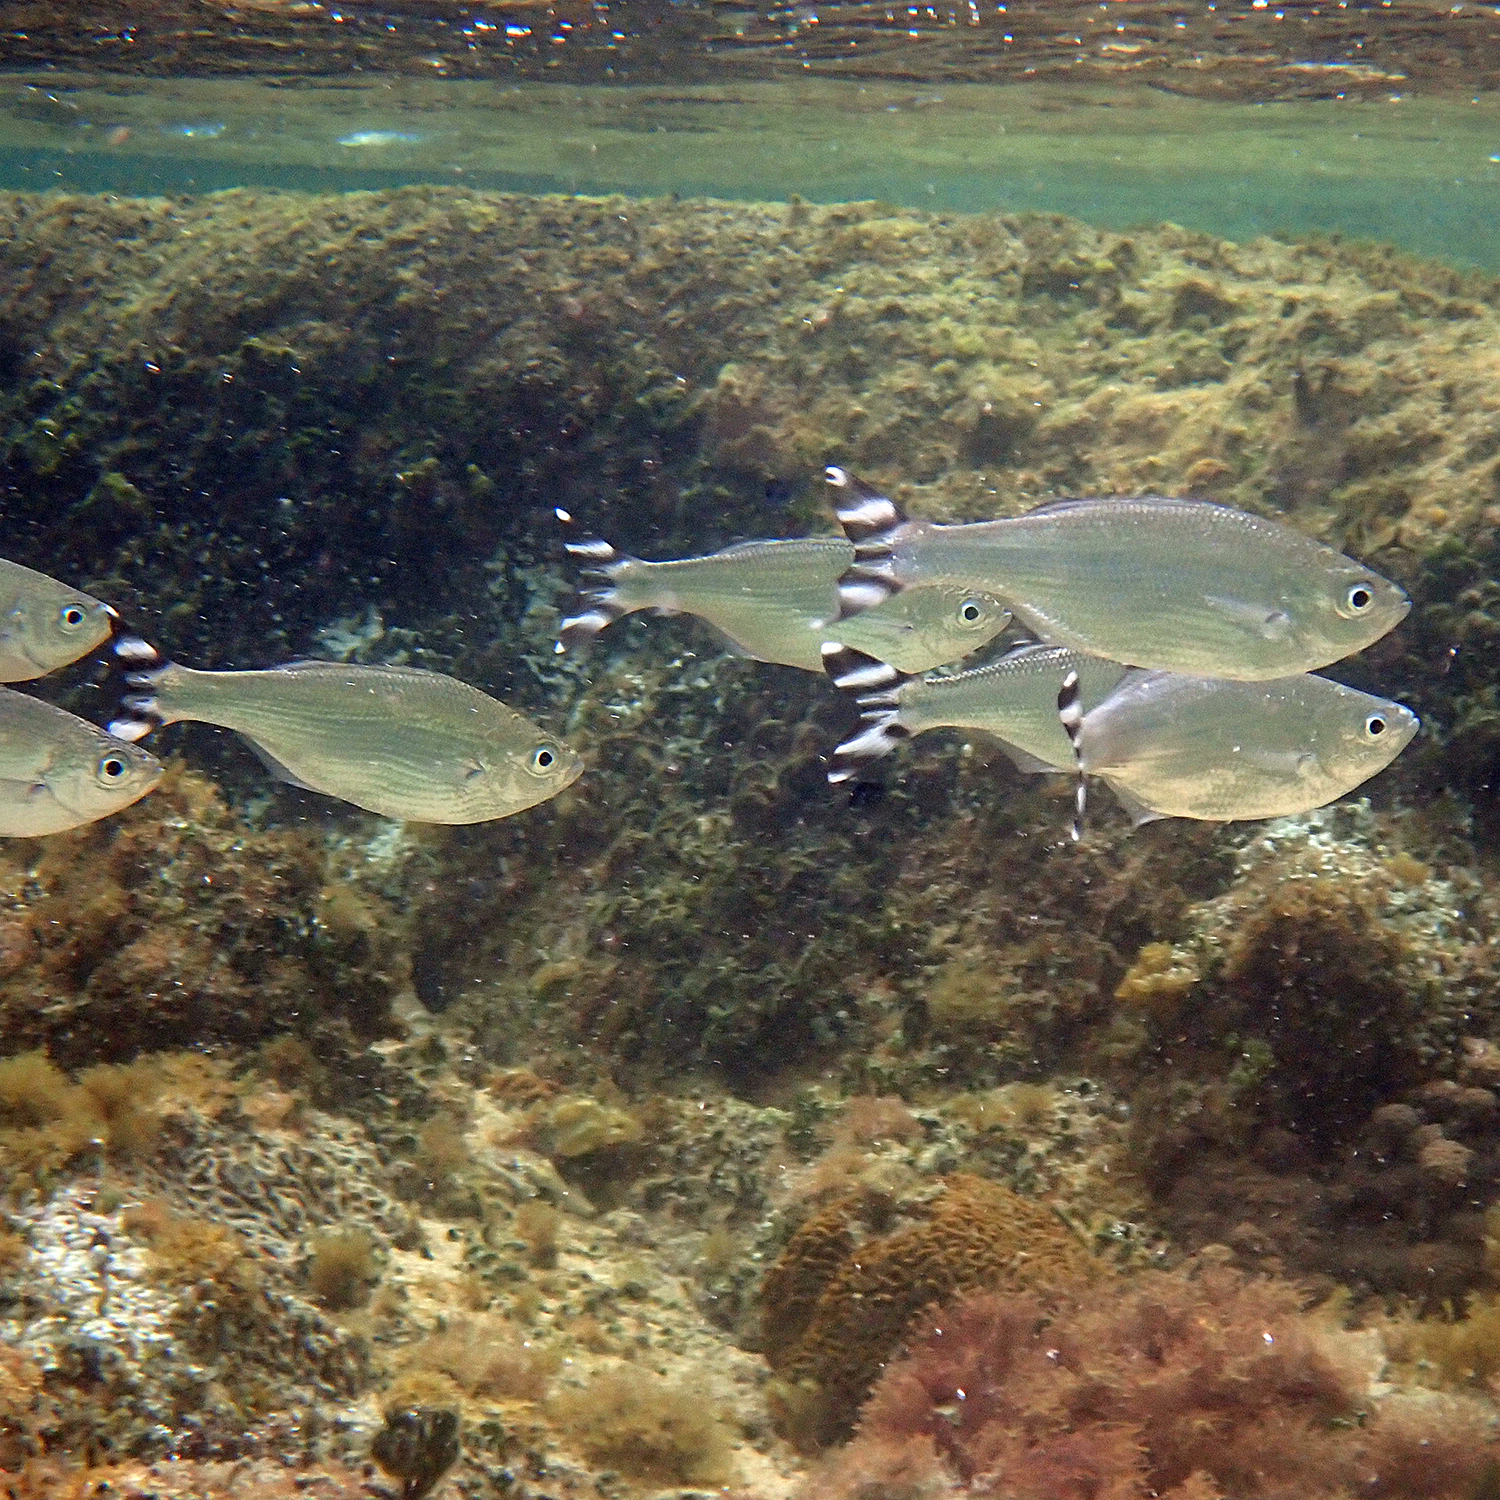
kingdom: Animalia
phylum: Chordata
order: Perciformes
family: Kuhliidae
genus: Kuhlia
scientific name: Kuhlia mugil
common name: Barred flagtail
